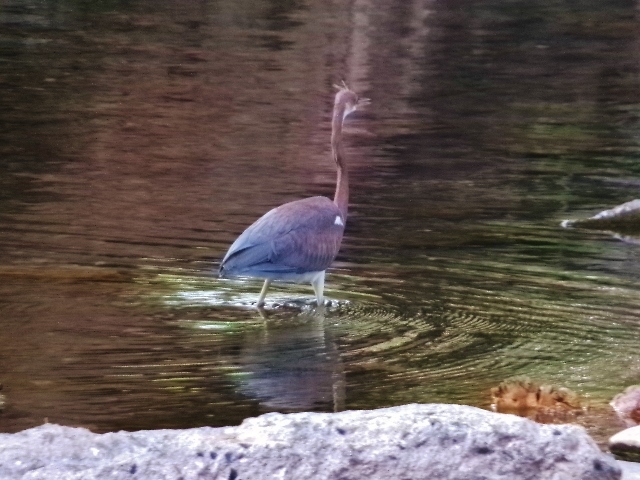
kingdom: Animalia
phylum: Chordata
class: Aves
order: Pelecaniformes
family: Ardeidae
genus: Egretta
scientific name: Egretta tricolor
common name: Tricolored heron
